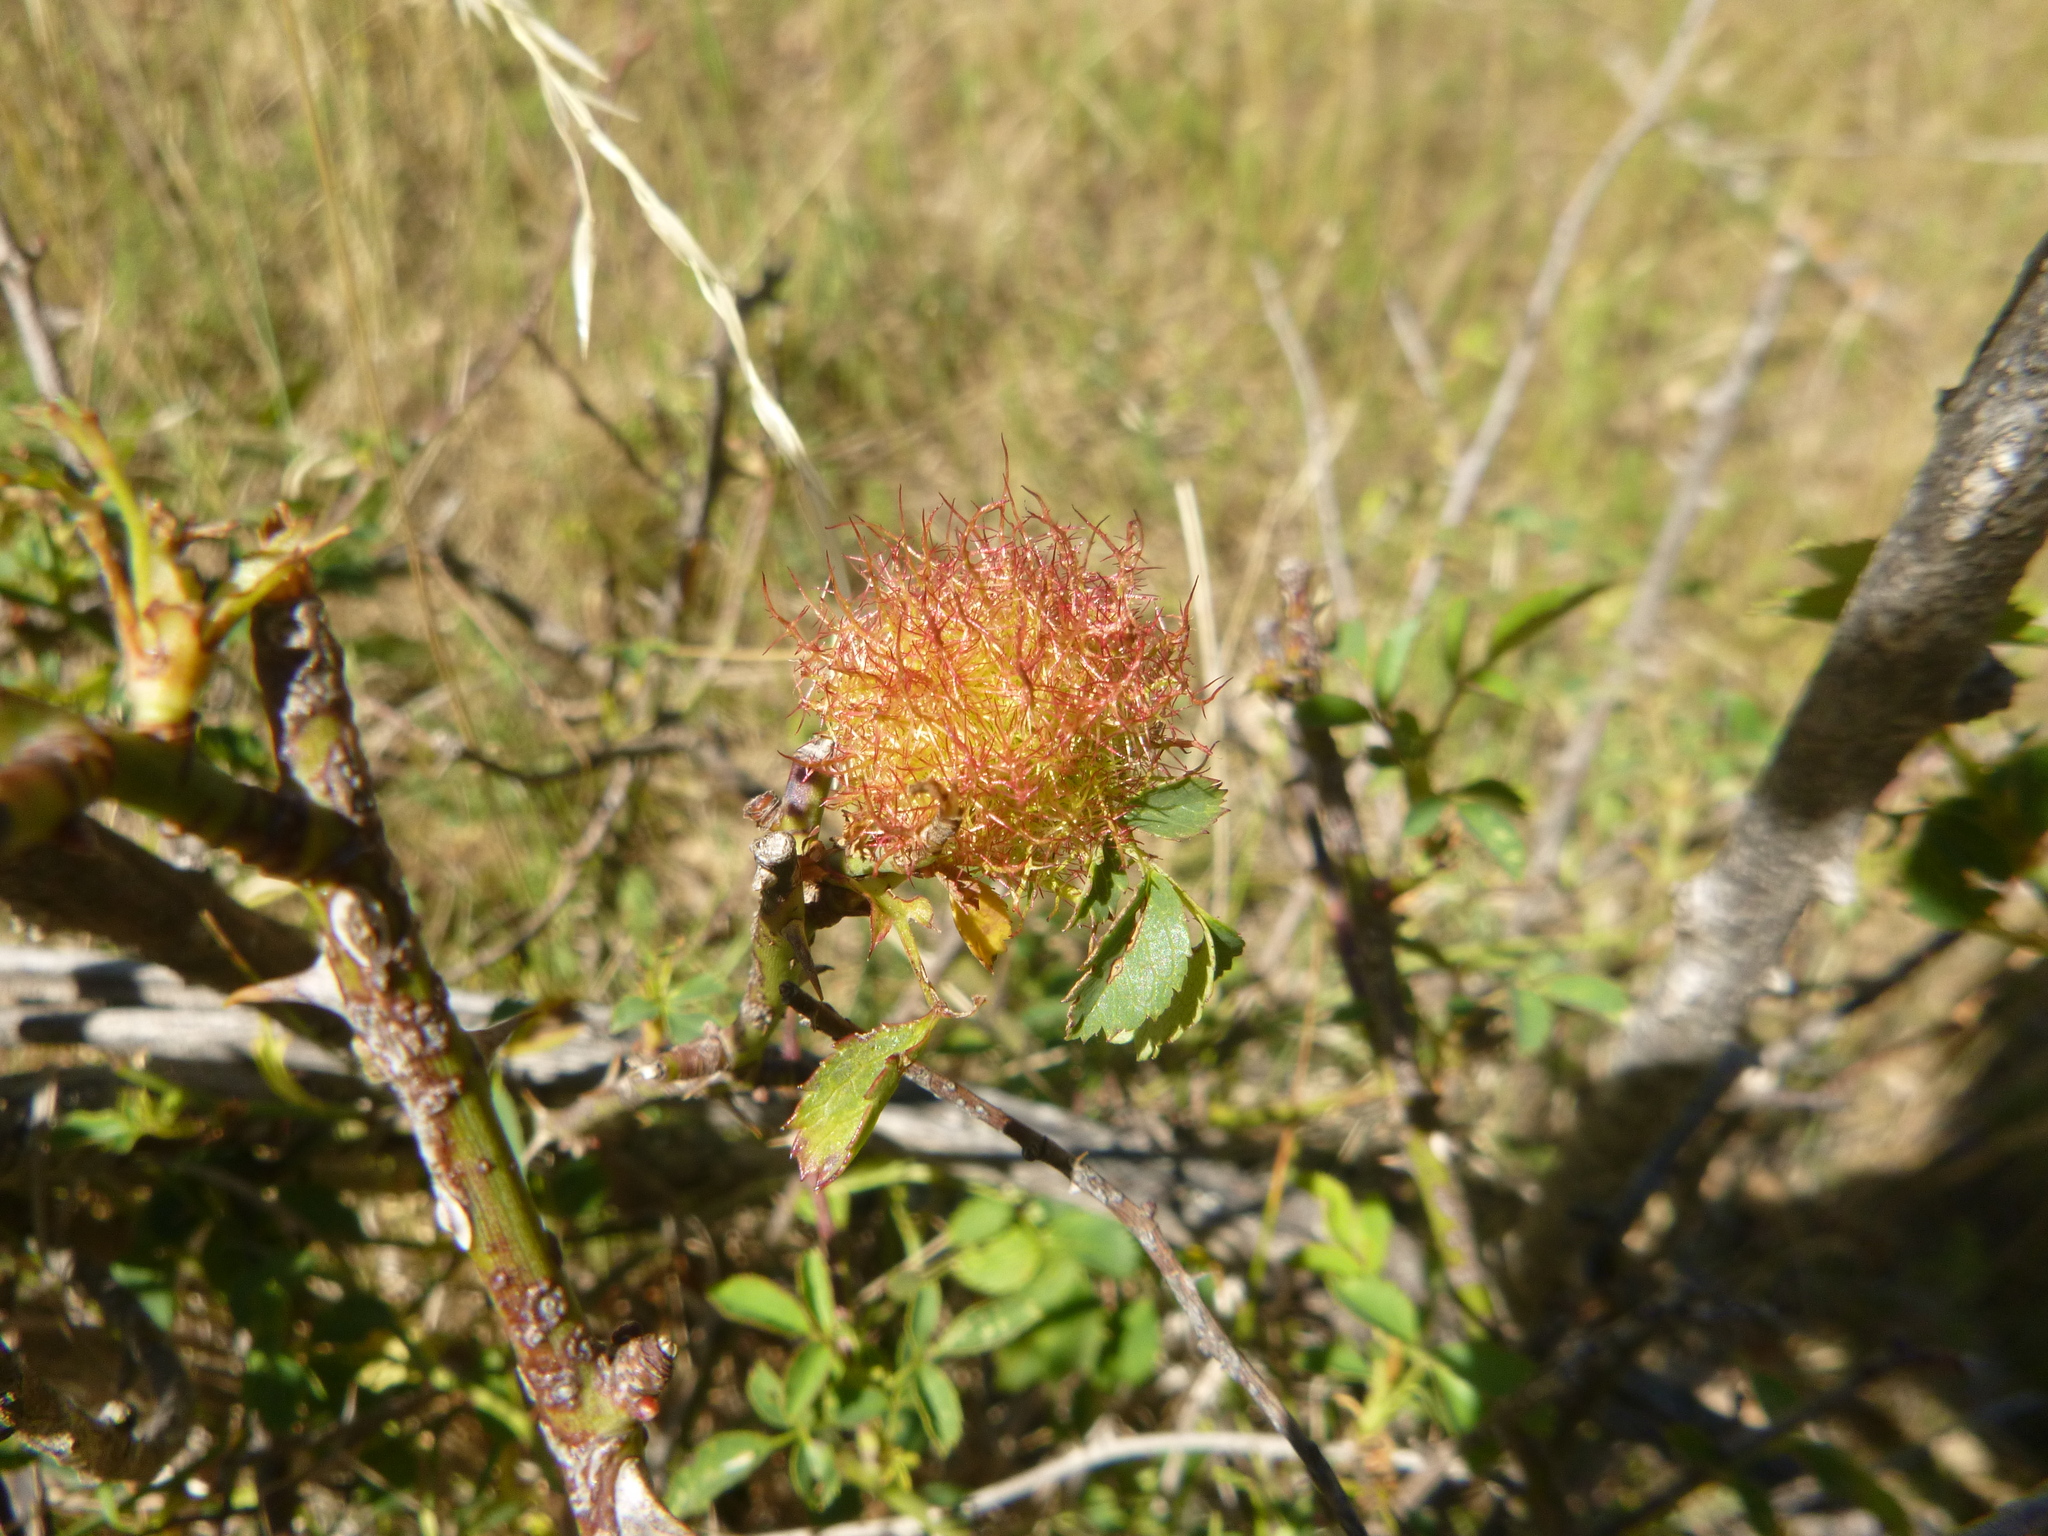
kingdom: Animalia
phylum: Arthropoda
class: Insecta
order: Hymenoptera
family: Cynipidae
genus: Diplolepis
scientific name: Diplolepis rosae
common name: Bedeguar gall
